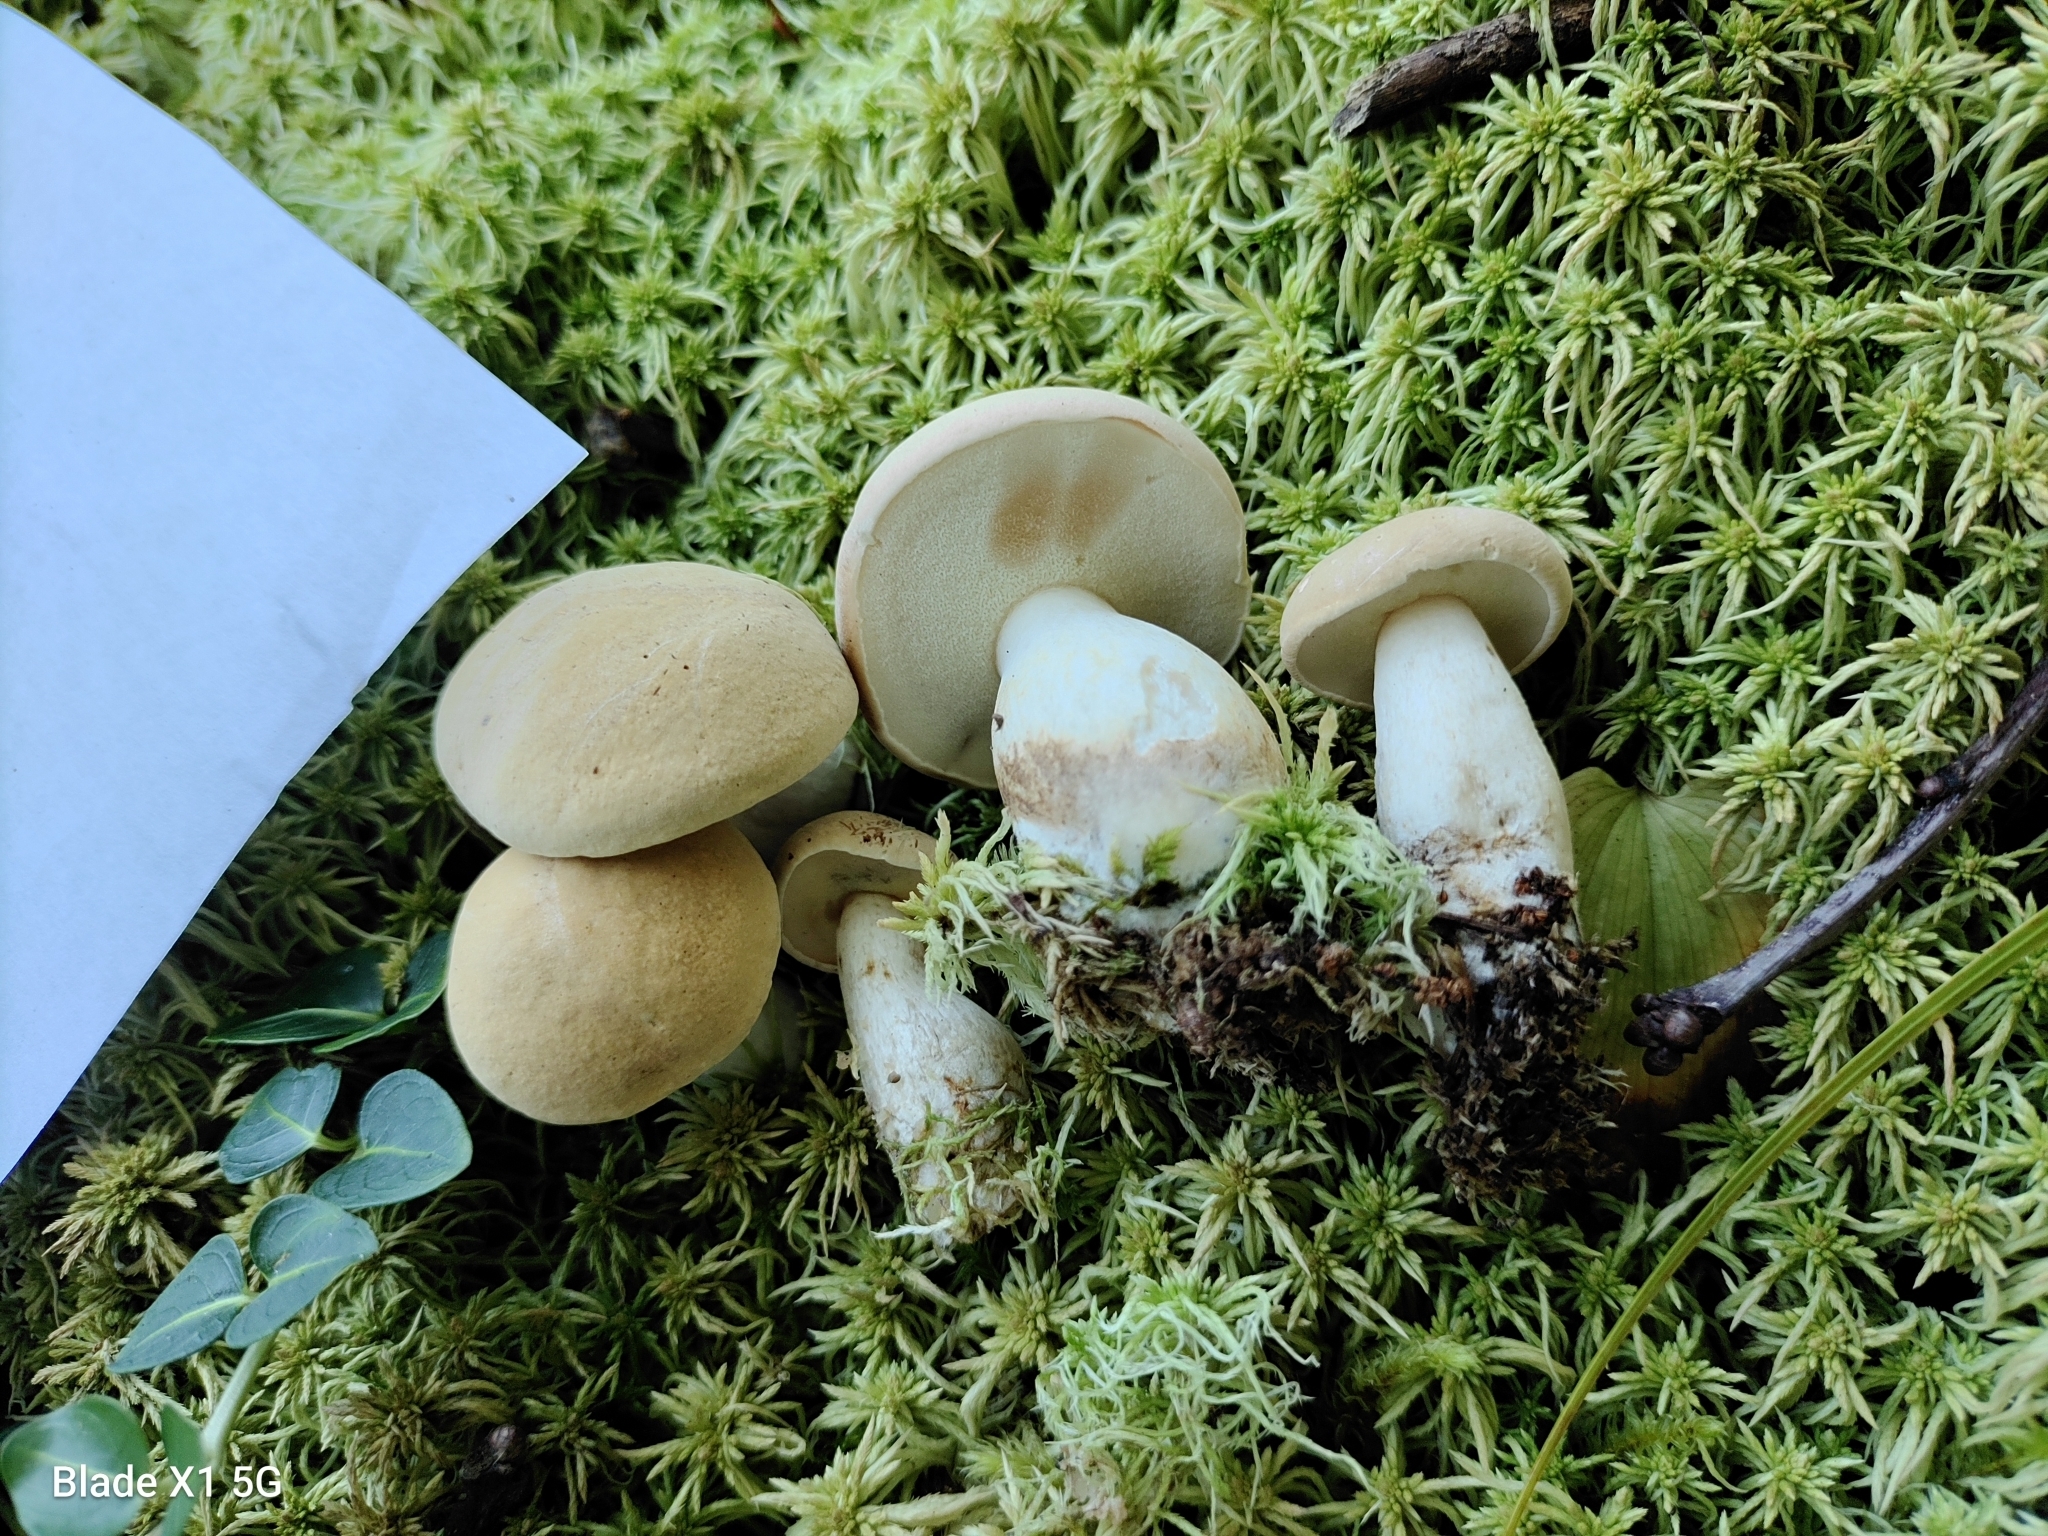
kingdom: Fungi
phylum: Basidiomycota
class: Agaricomycetes
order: Boletales
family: Boletaceae
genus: Imleria
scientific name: Imleria pallida
